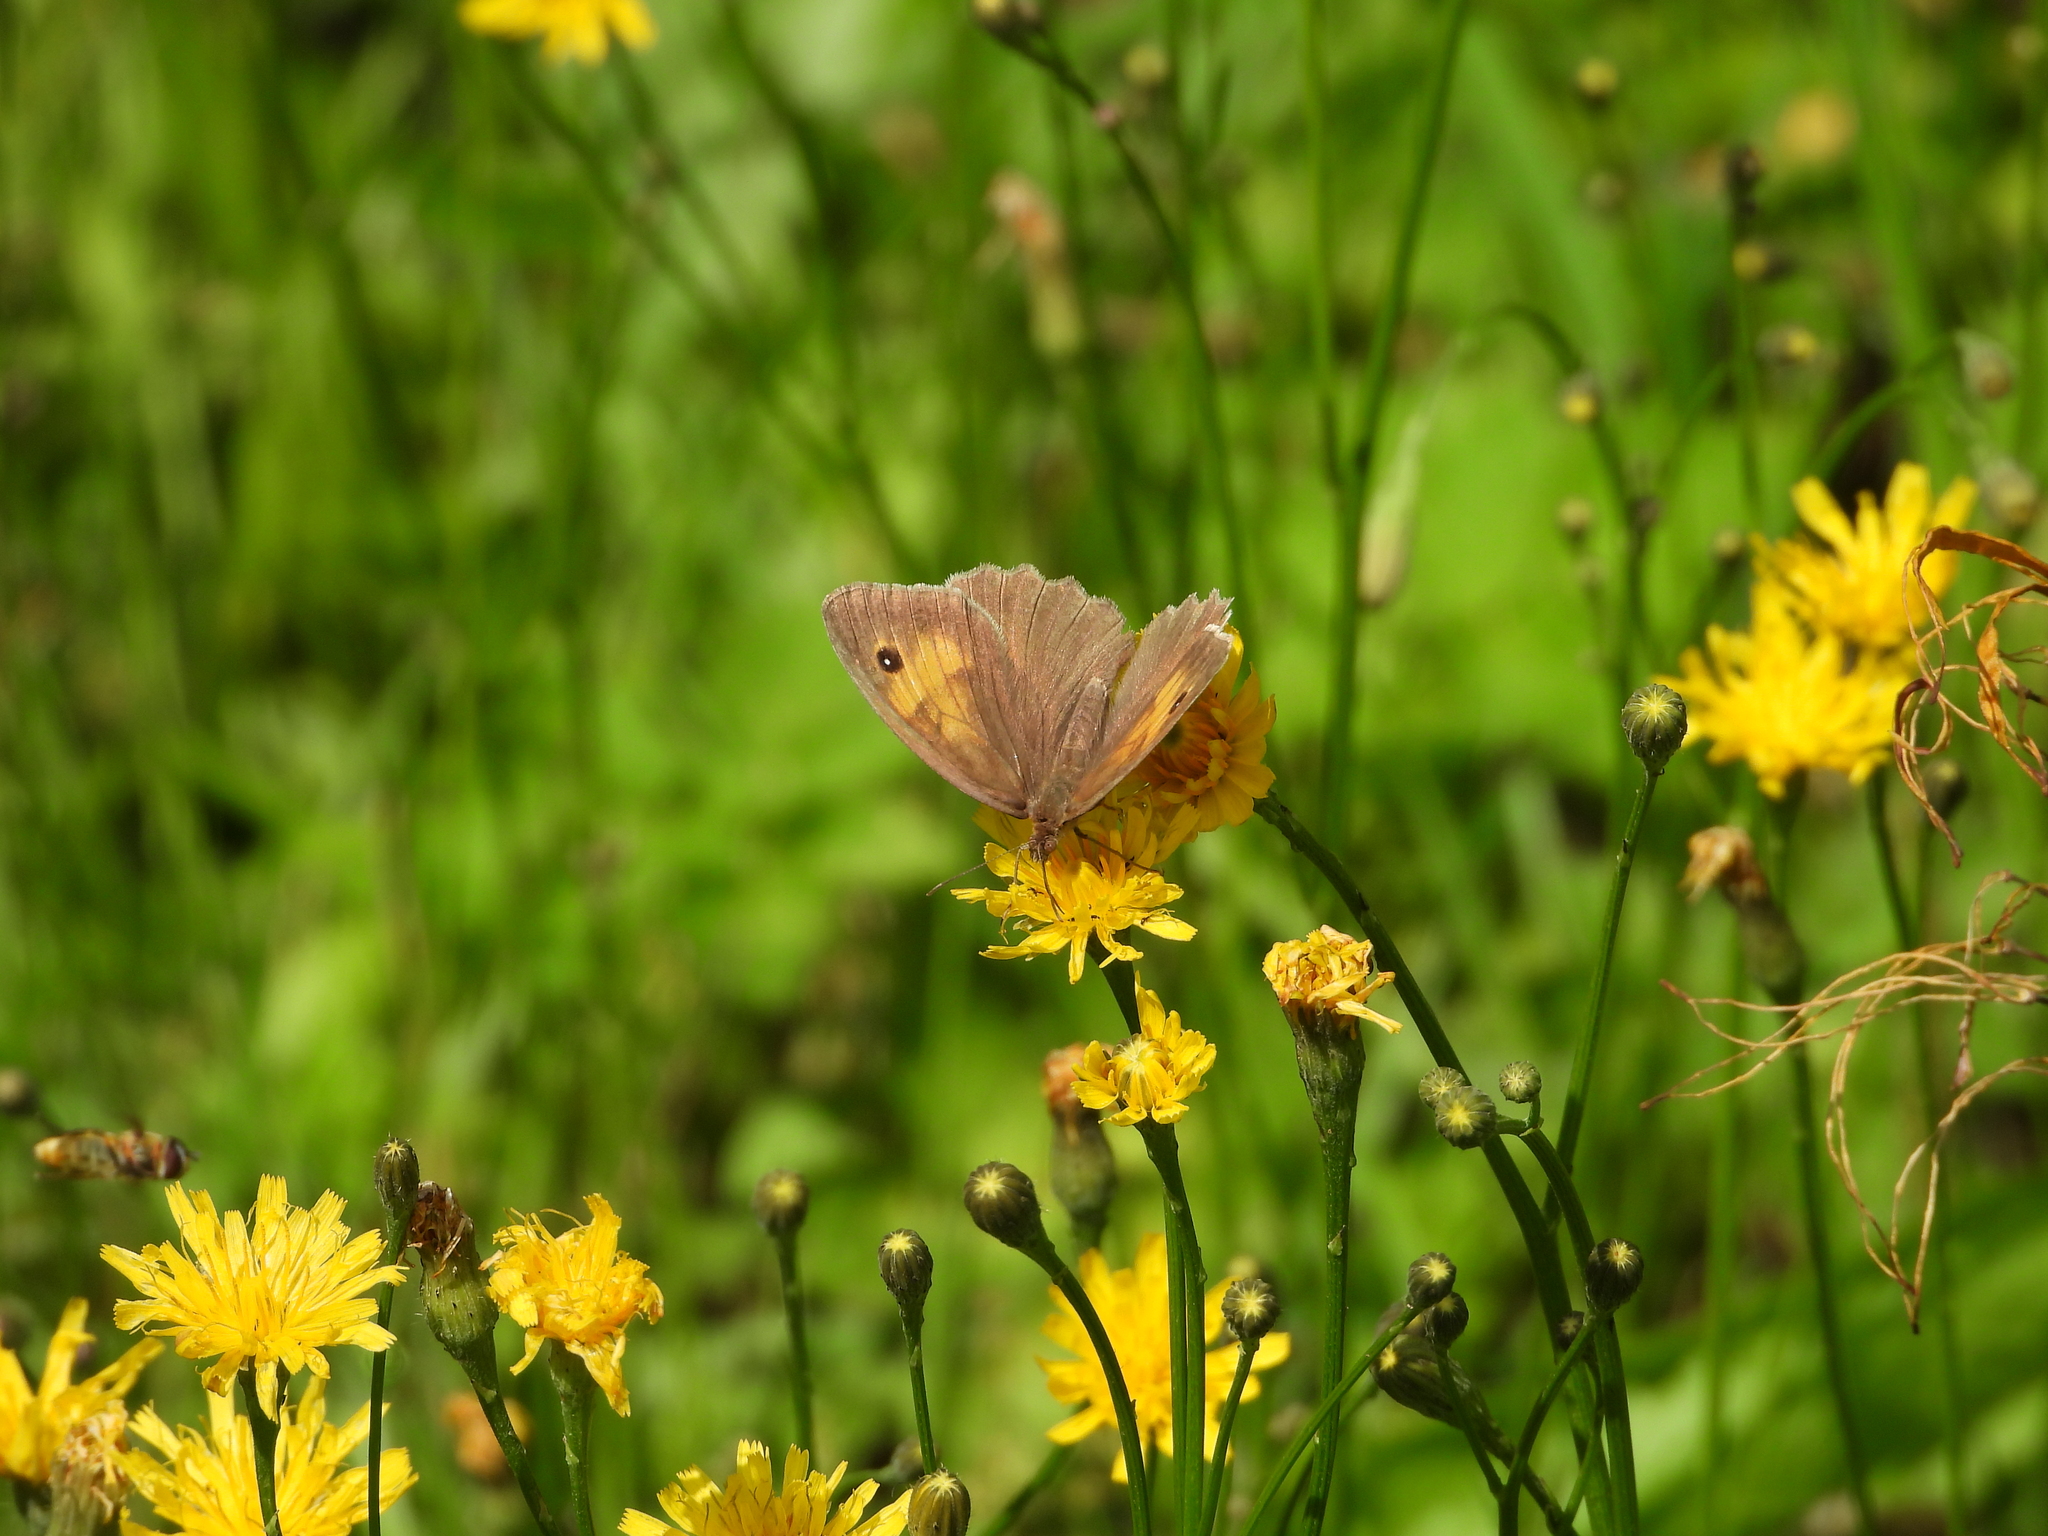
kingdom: Animalia
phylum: Arthropoda
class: Insecta
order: Lepidoptera
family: Nymphalidae
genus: Maniola
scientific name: Maniola jurtina
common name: Meadow brown
